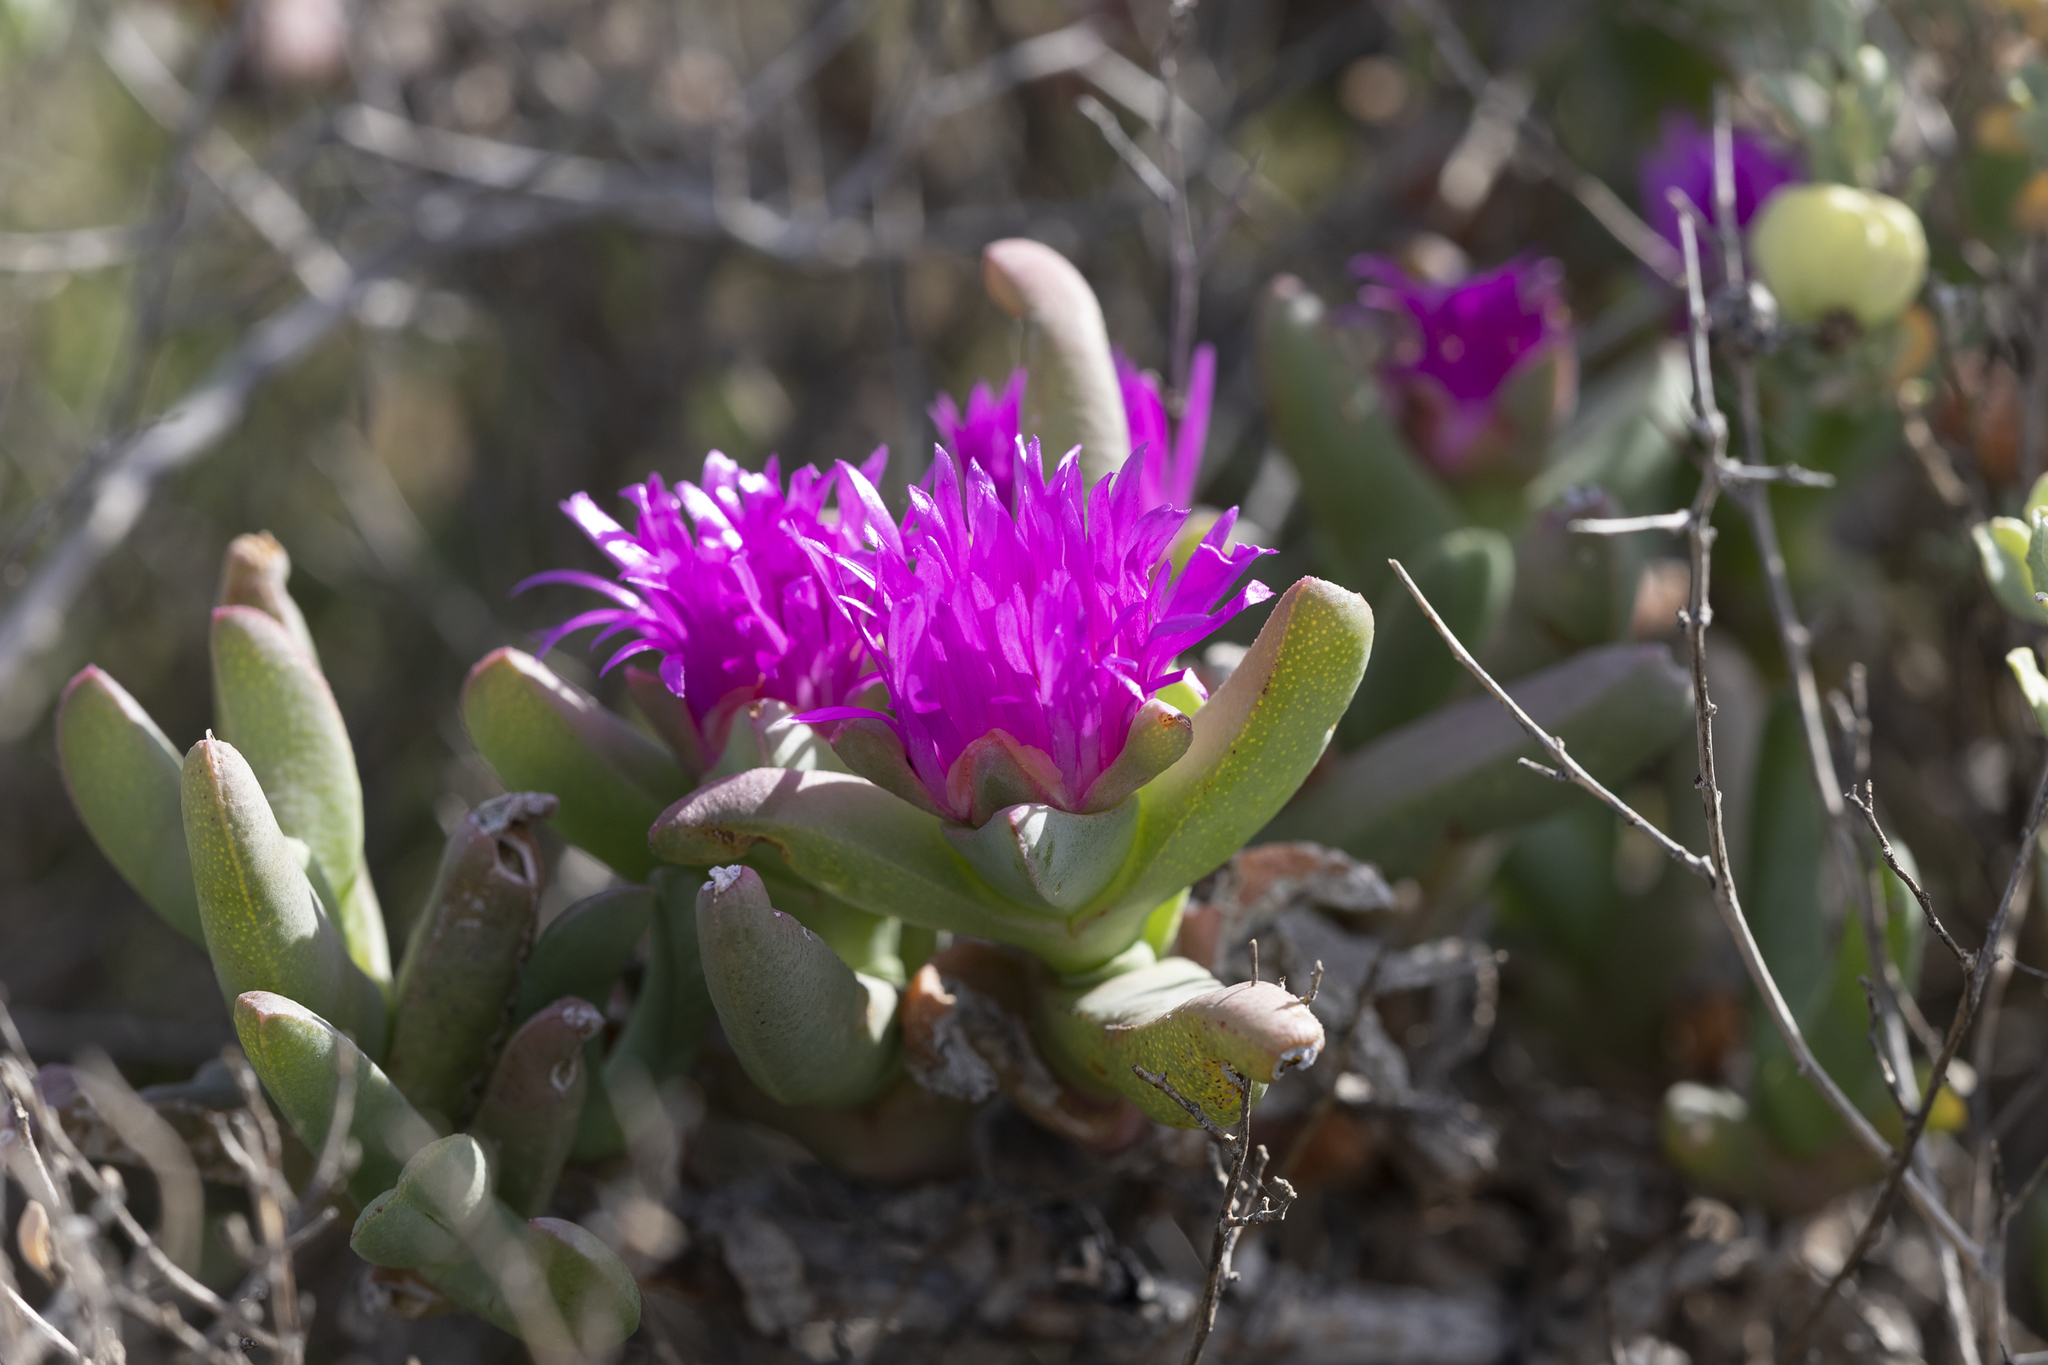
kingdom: Plantae
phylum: Tracheophyta
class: Magnoliopsida
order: Caryophyllales
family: Aizoaceae
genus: Sarcozona
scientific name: Sarcozona praecox
